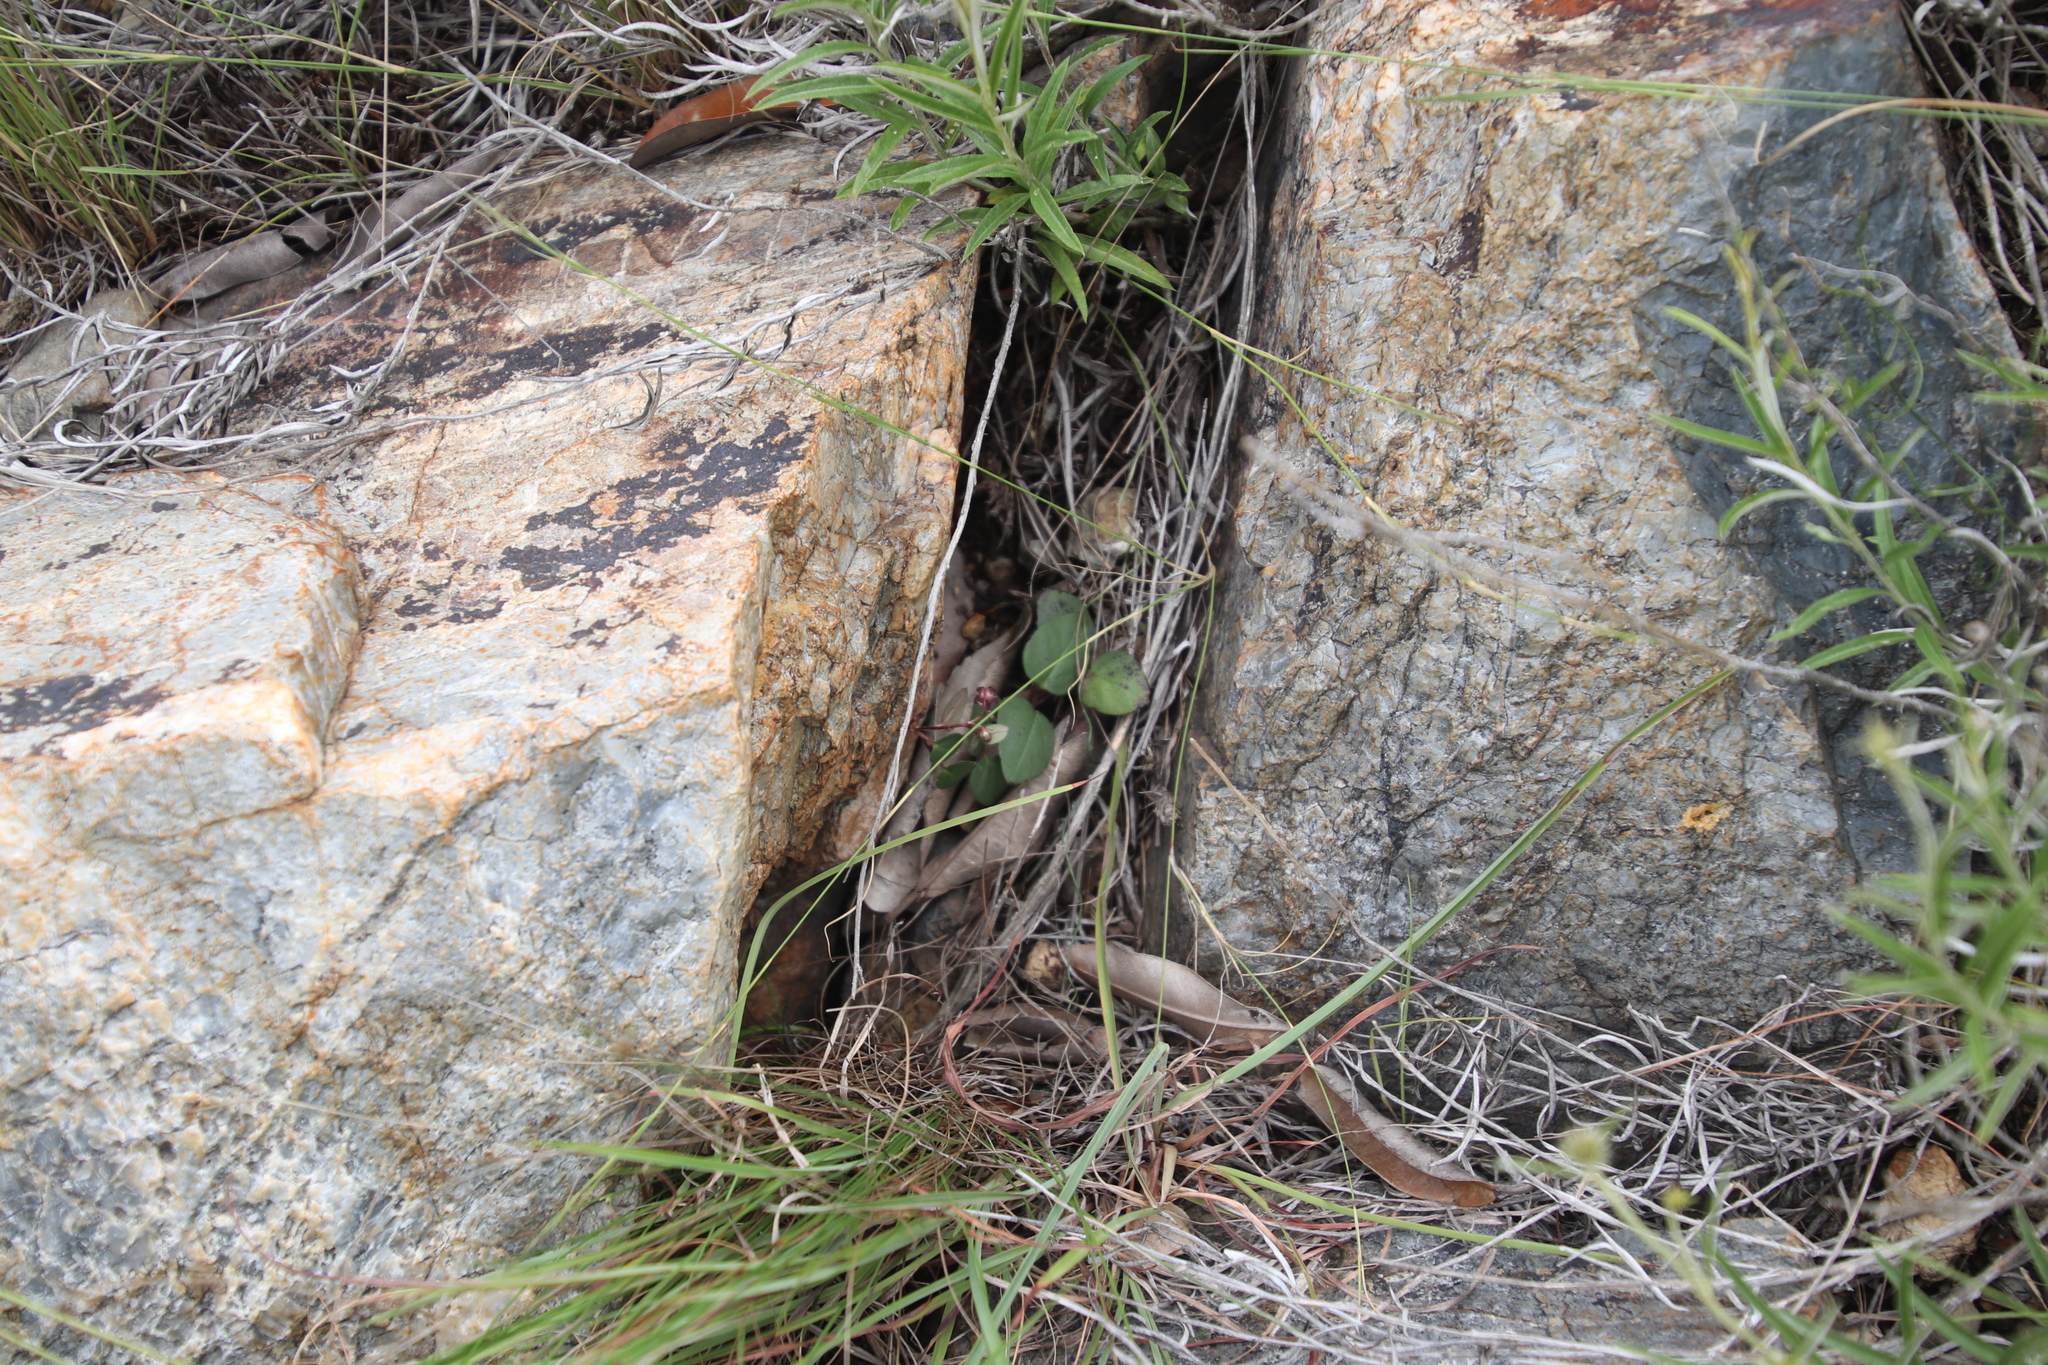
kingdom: Plantae
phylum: Tracheophyta
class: Magnoliopsida
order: Gentianales
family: Apocynaceae
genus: Ceropegia
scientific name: Ceropegia swazica
